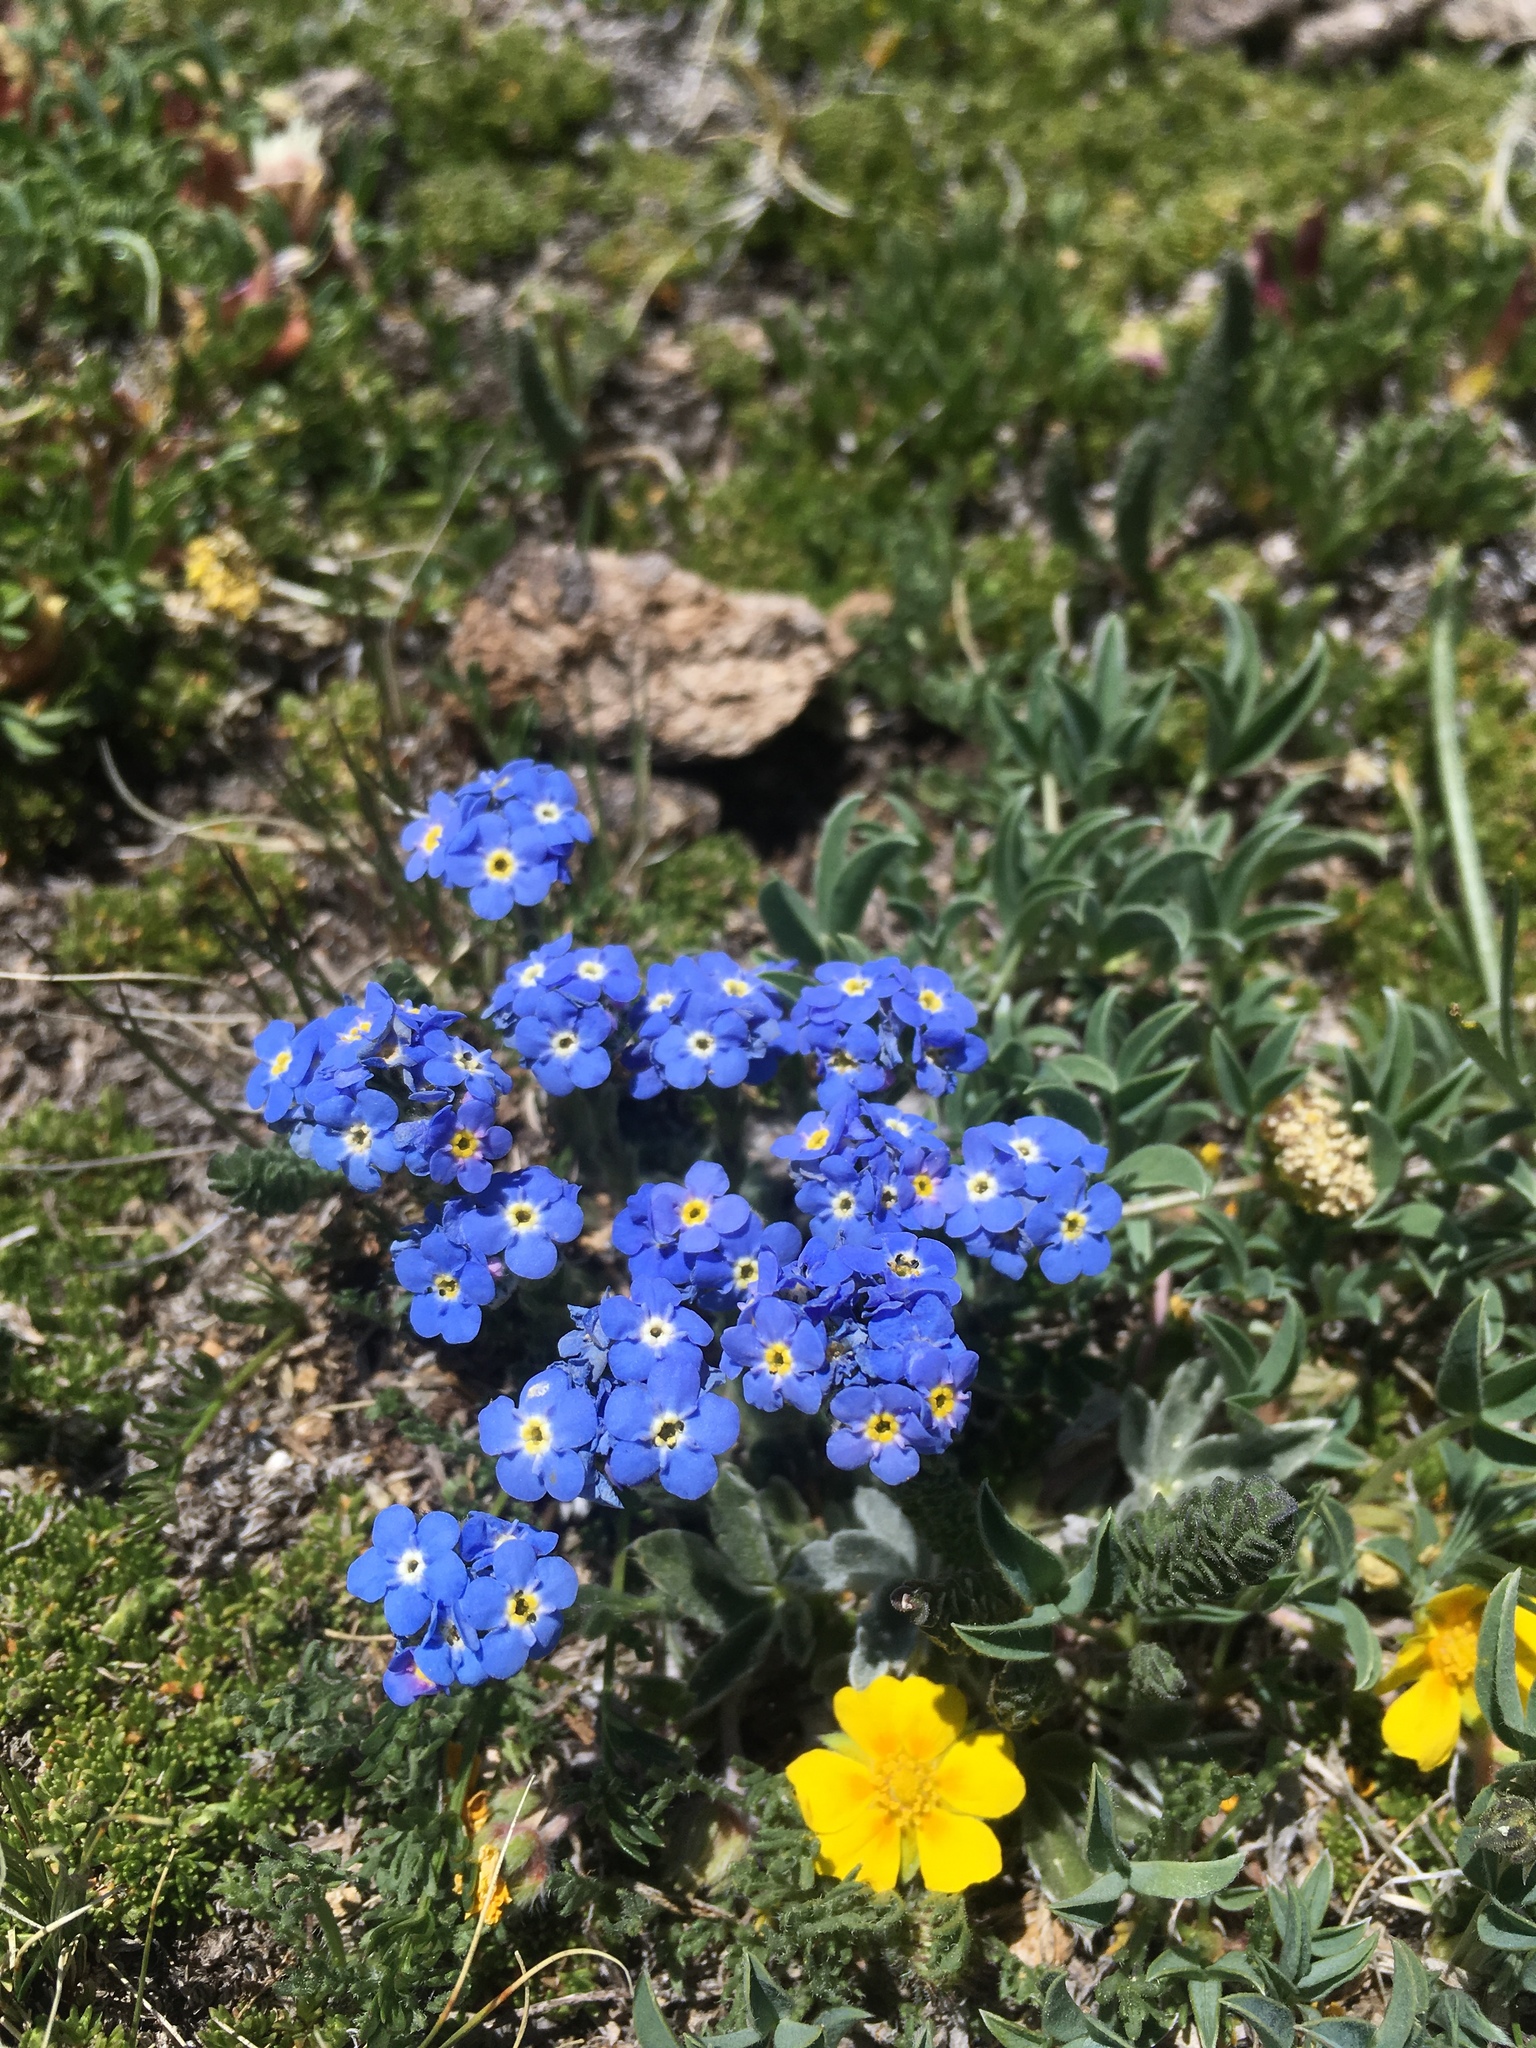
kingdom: Plantae
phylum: Tracheophyta
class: Magnoliopsida
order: Boraginales
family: Boraginaceae
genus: Eritrichium
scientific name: Eritrichium argenteum
